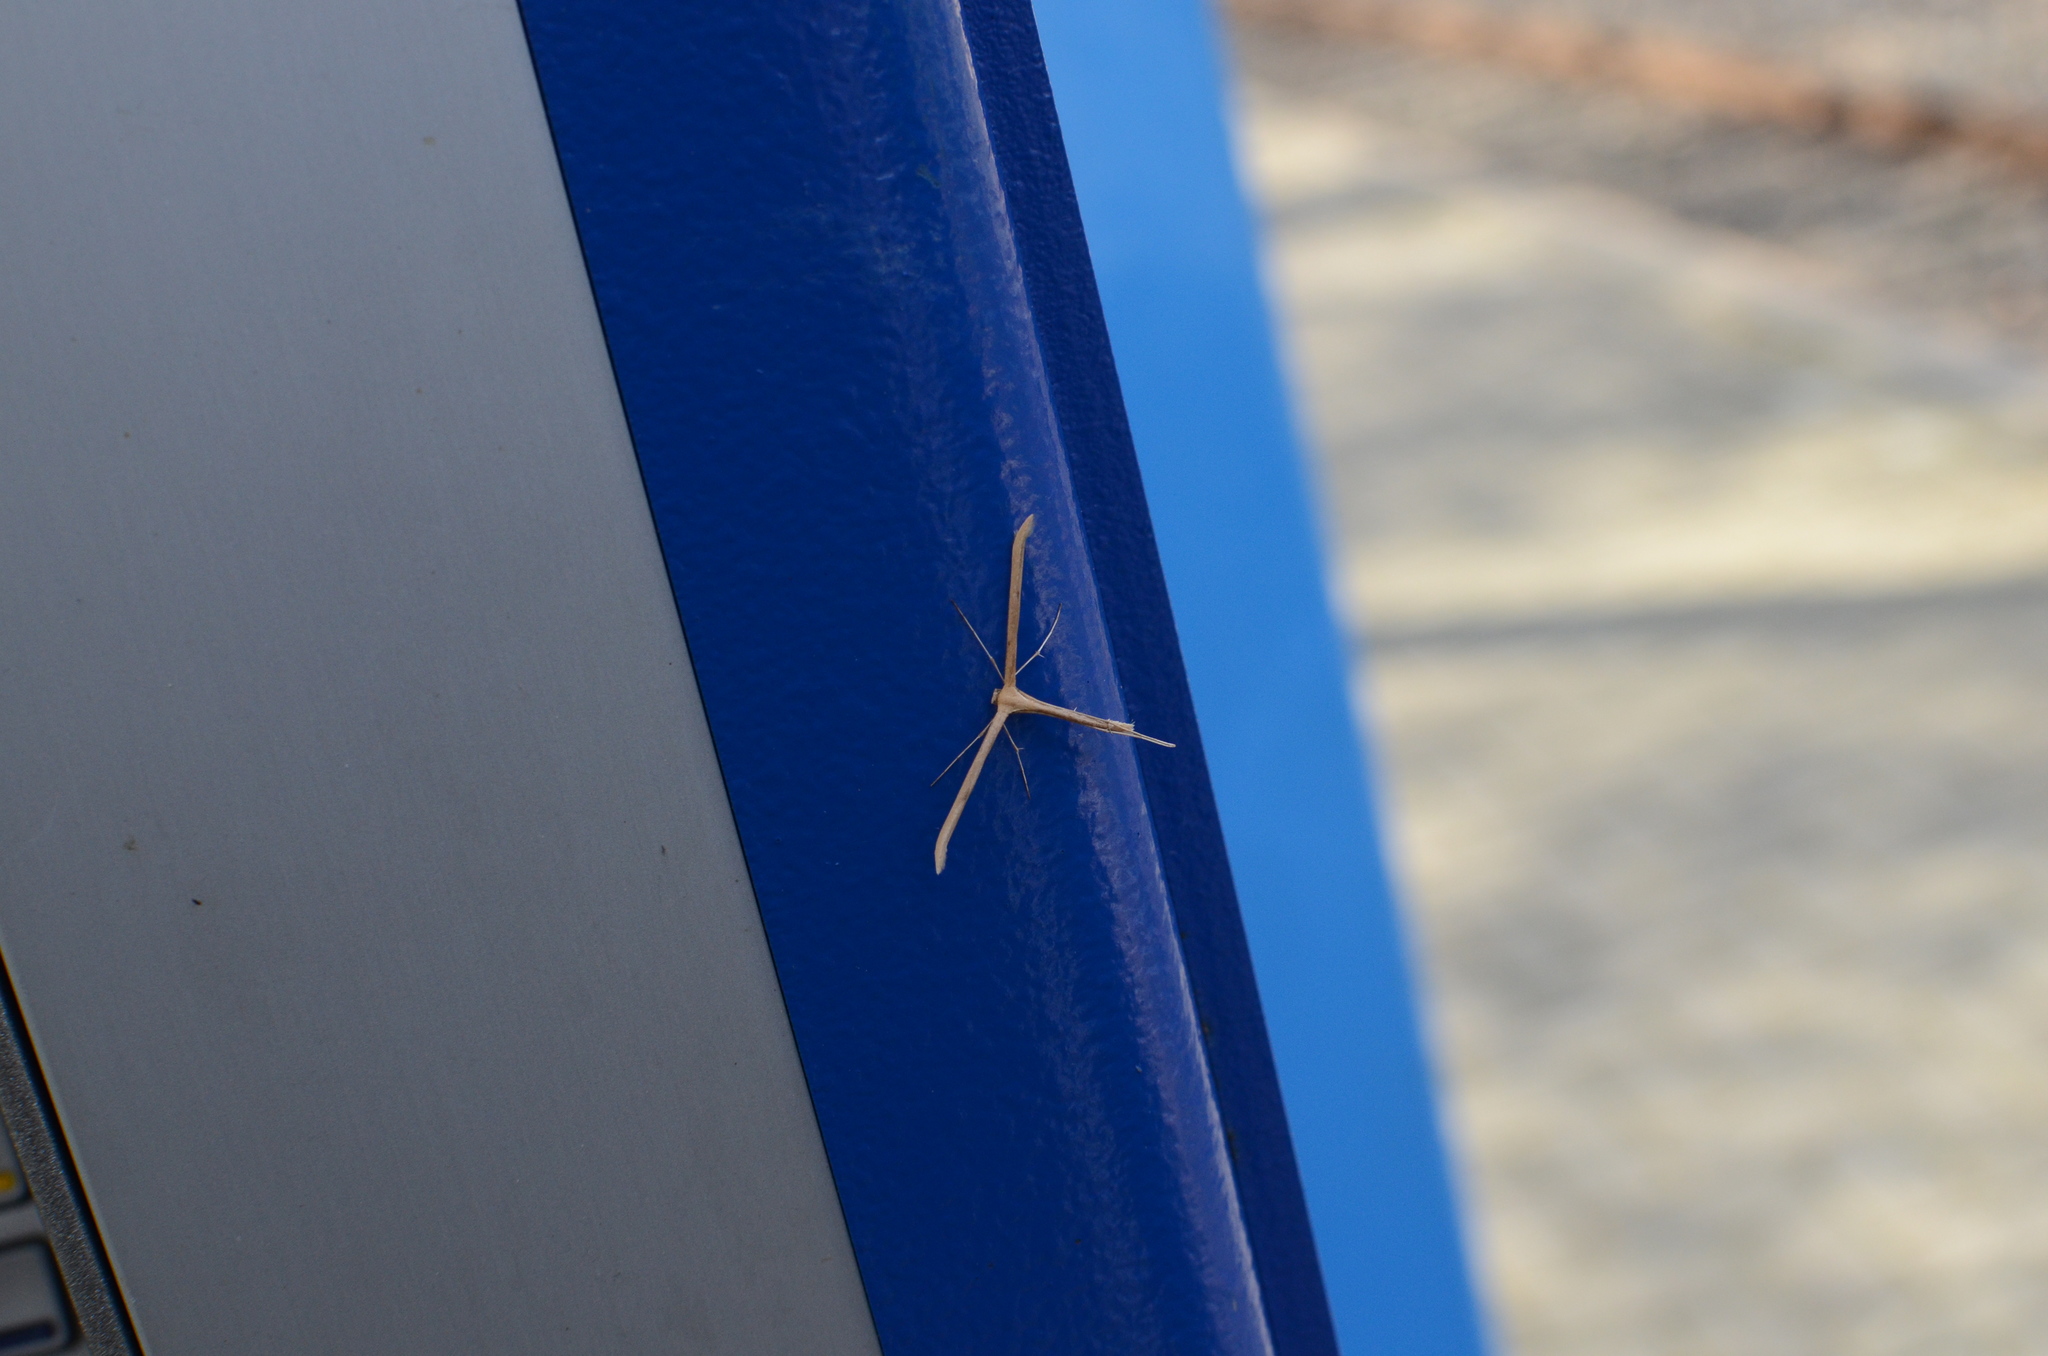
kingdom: Animalia
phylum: Arthropoda
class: Insecta
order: Lepidoptera
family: Pterophoridae
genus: Emmelina
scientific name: Emmelina monodactyla
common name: Common plume
